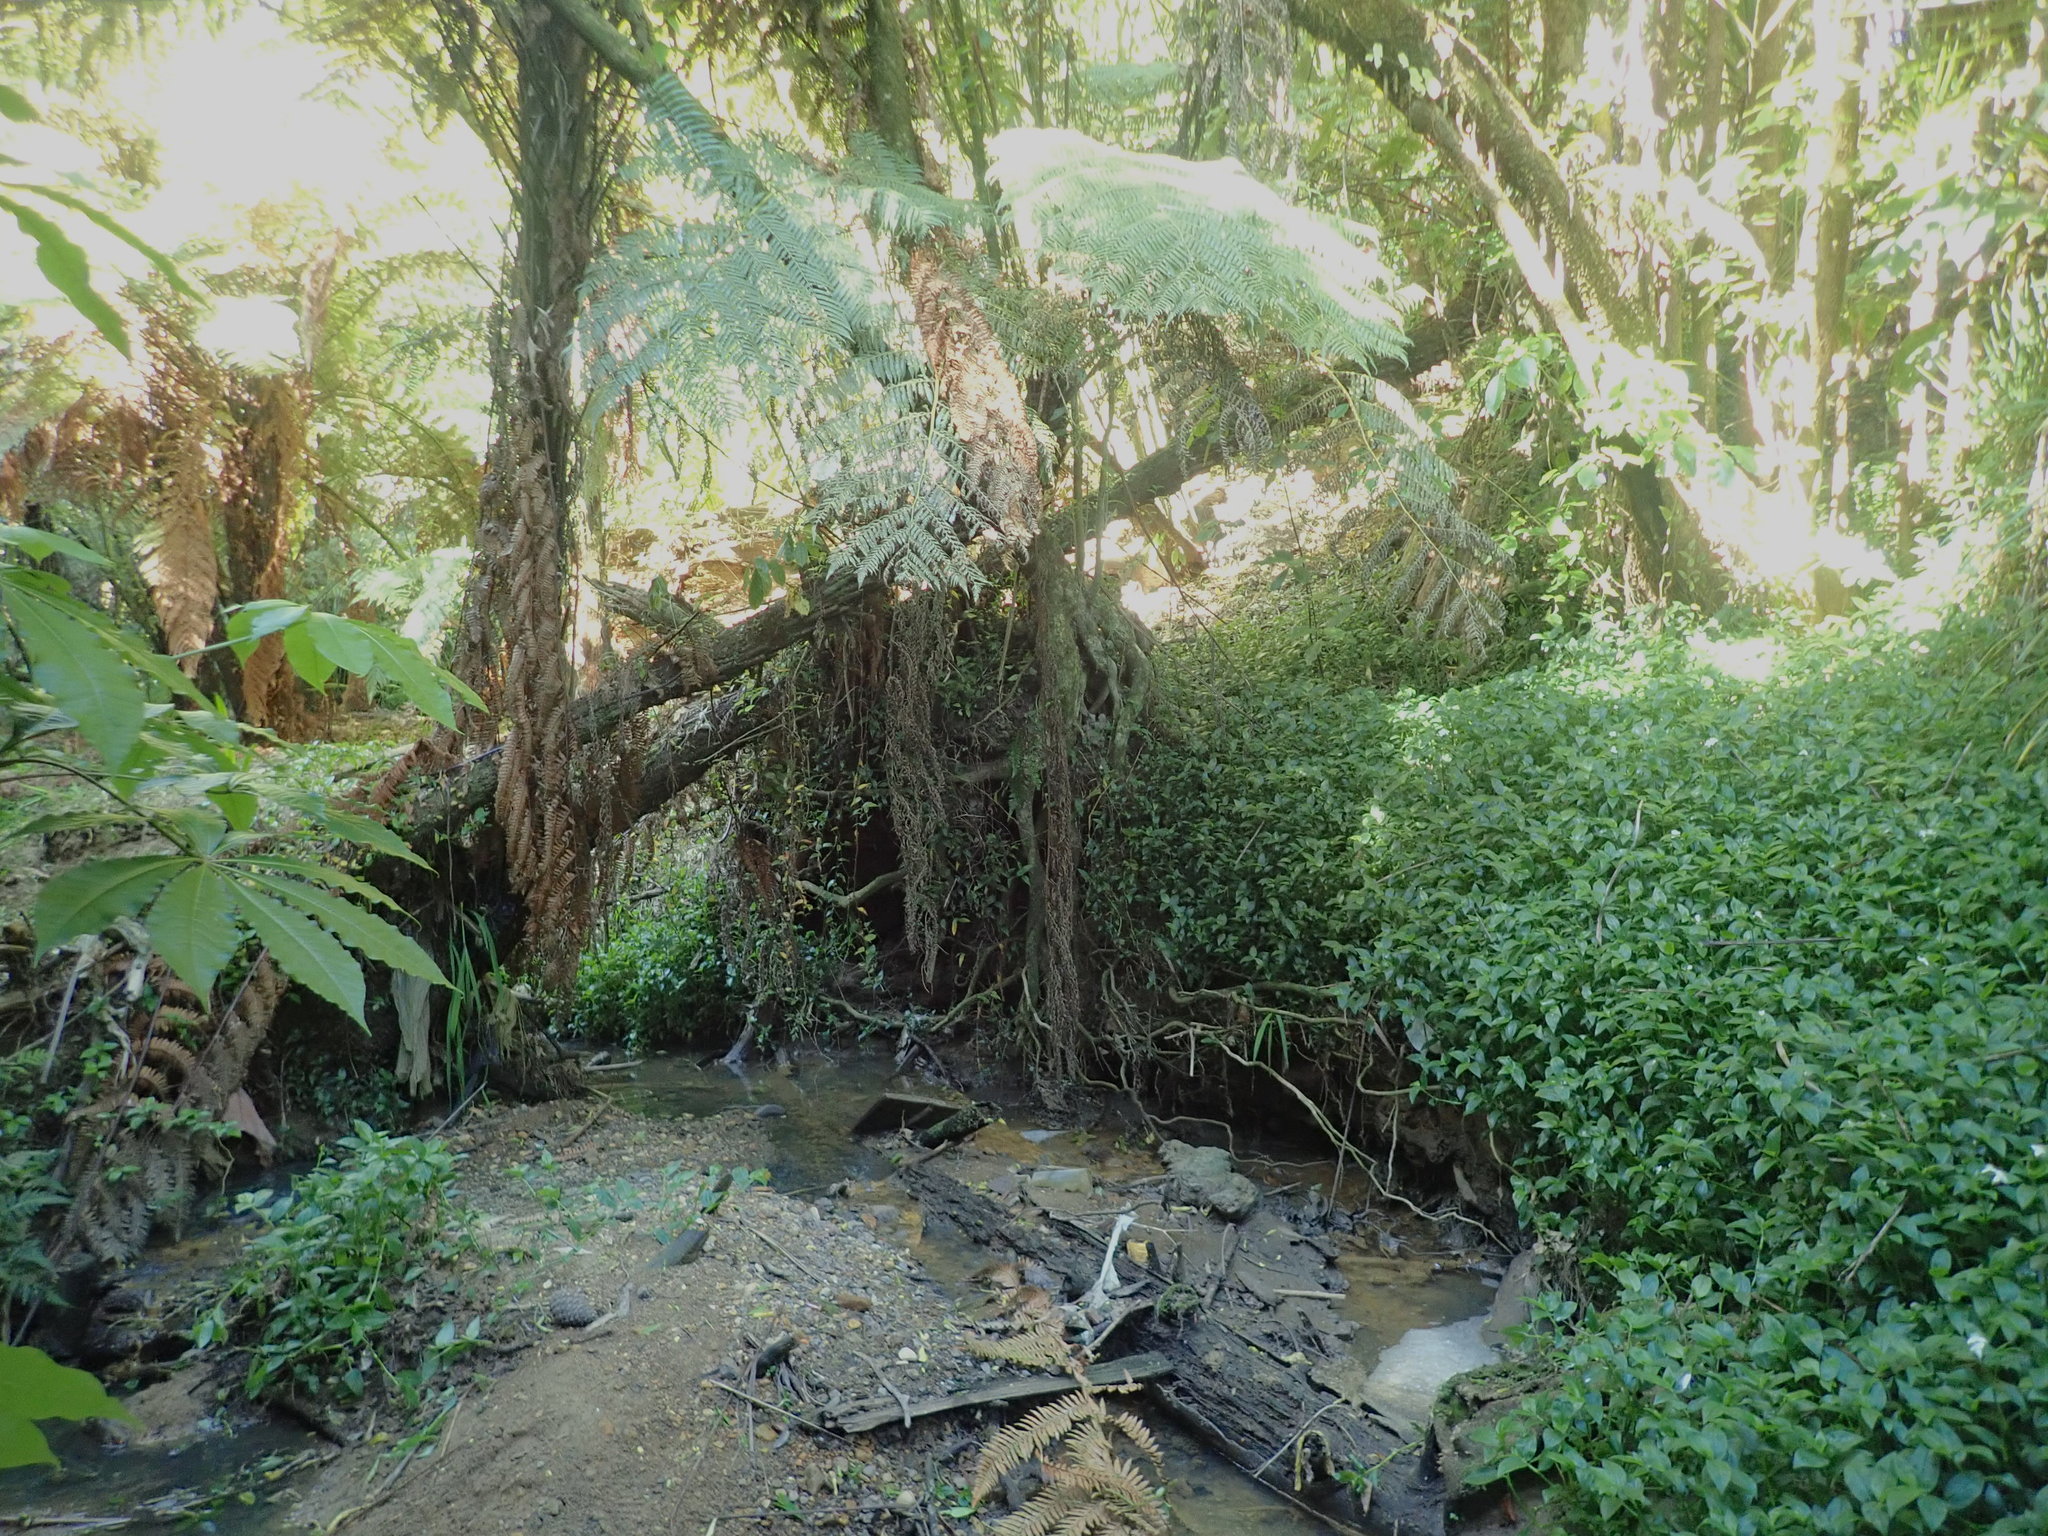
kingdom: Plantae
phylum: Tracheophyta
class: Liliopsida
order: Commelinales
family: Commelinaceae
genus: Tradescantia
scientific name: Tradescantia fluminensis
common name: Wandering-jew
